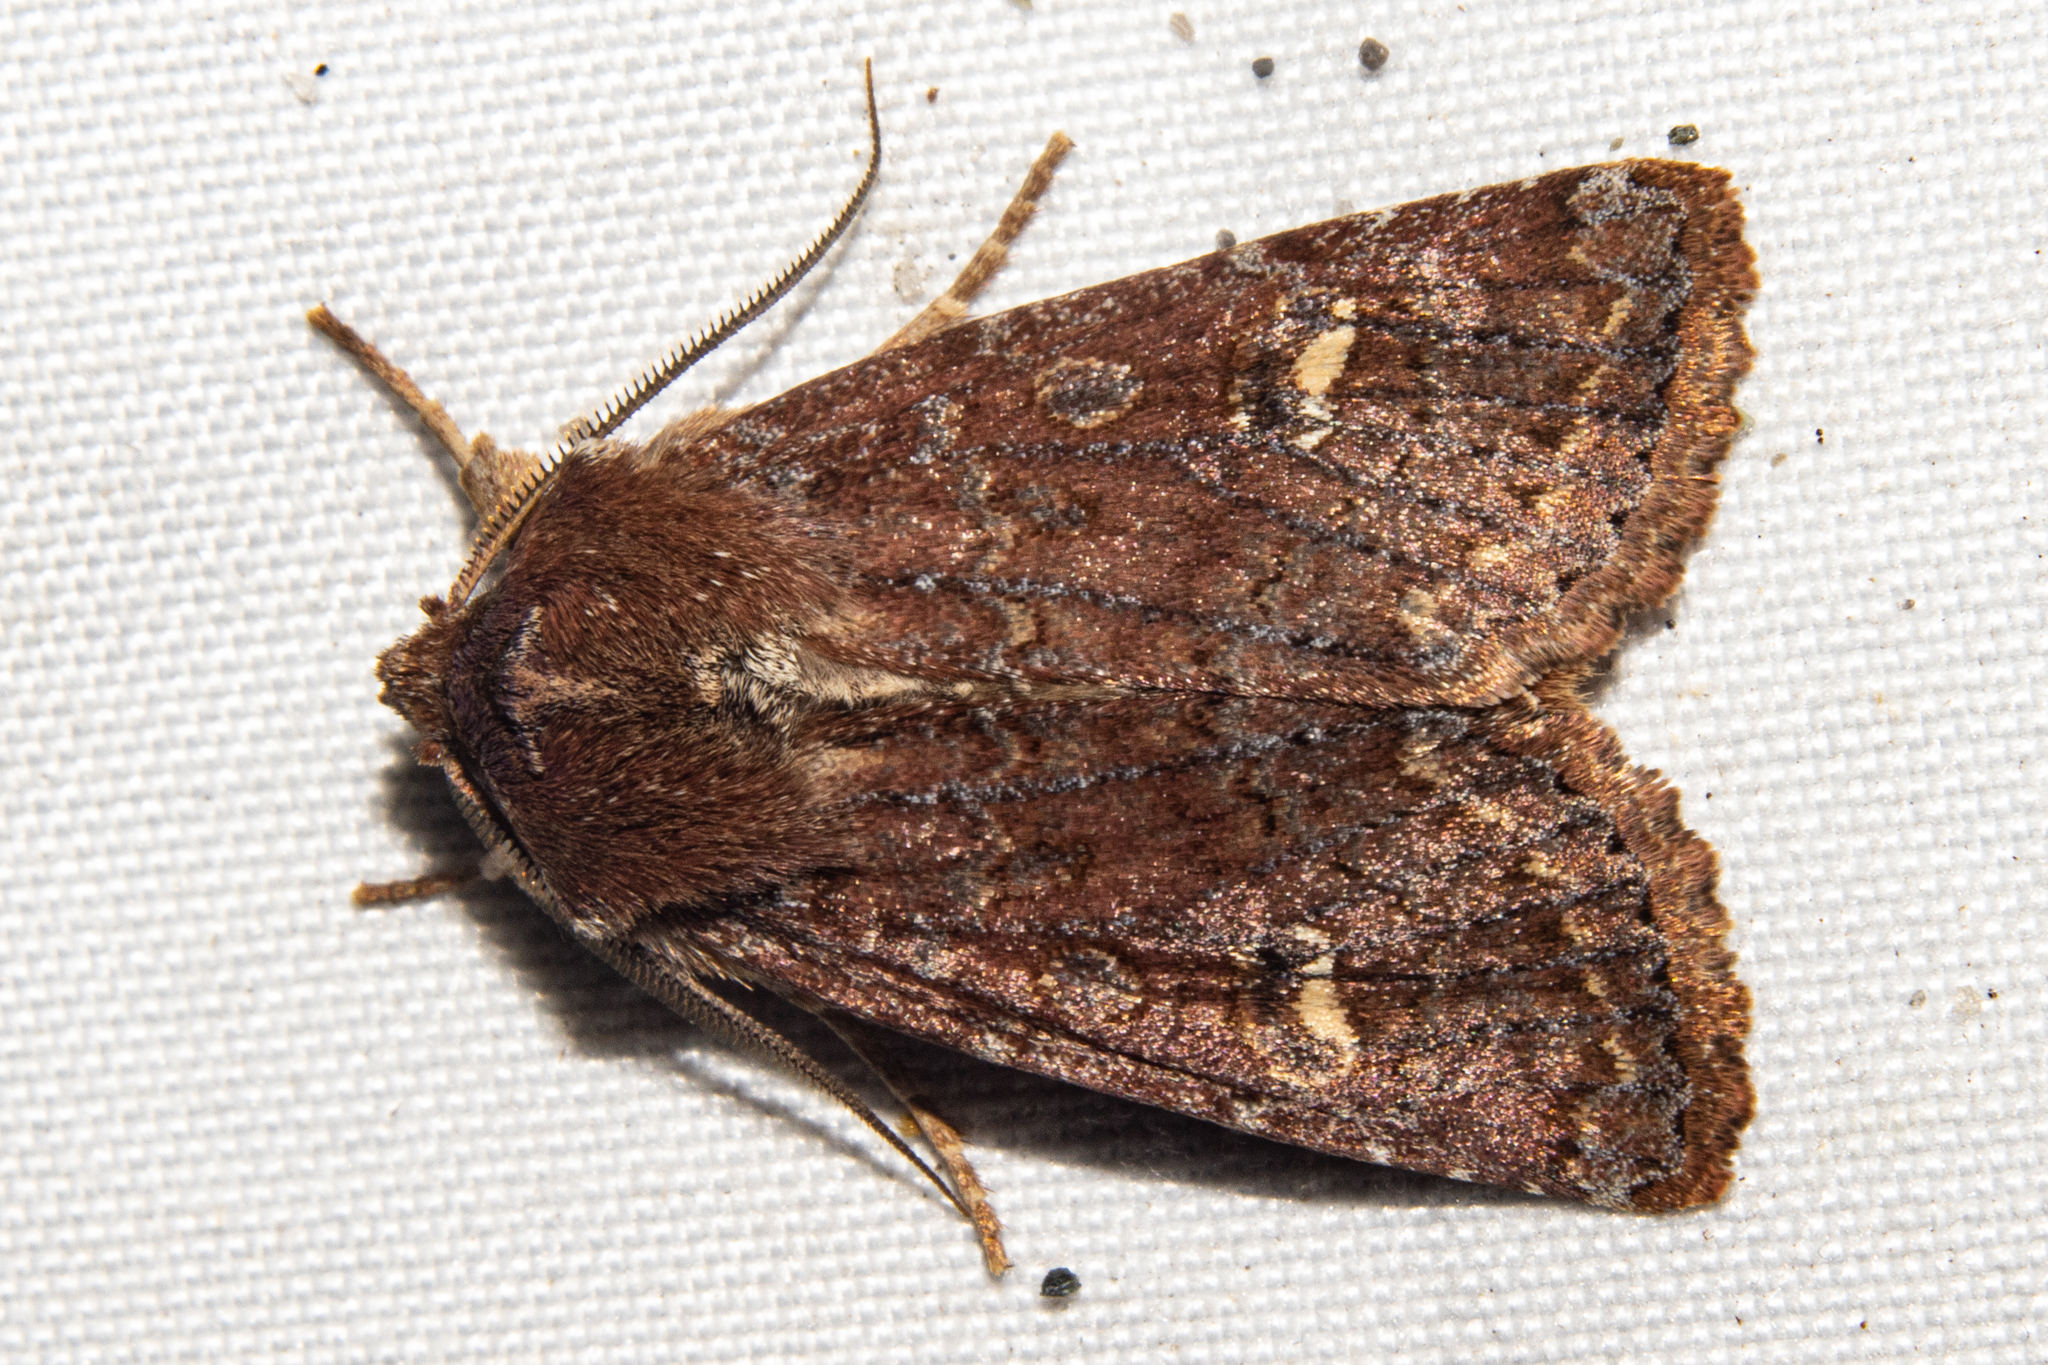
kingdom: Animalia
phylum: Arthropoda
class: Insecta
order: Lepidoptera
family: Noctuidae
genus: Ichneutica
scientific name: Ichneutica agorastis
